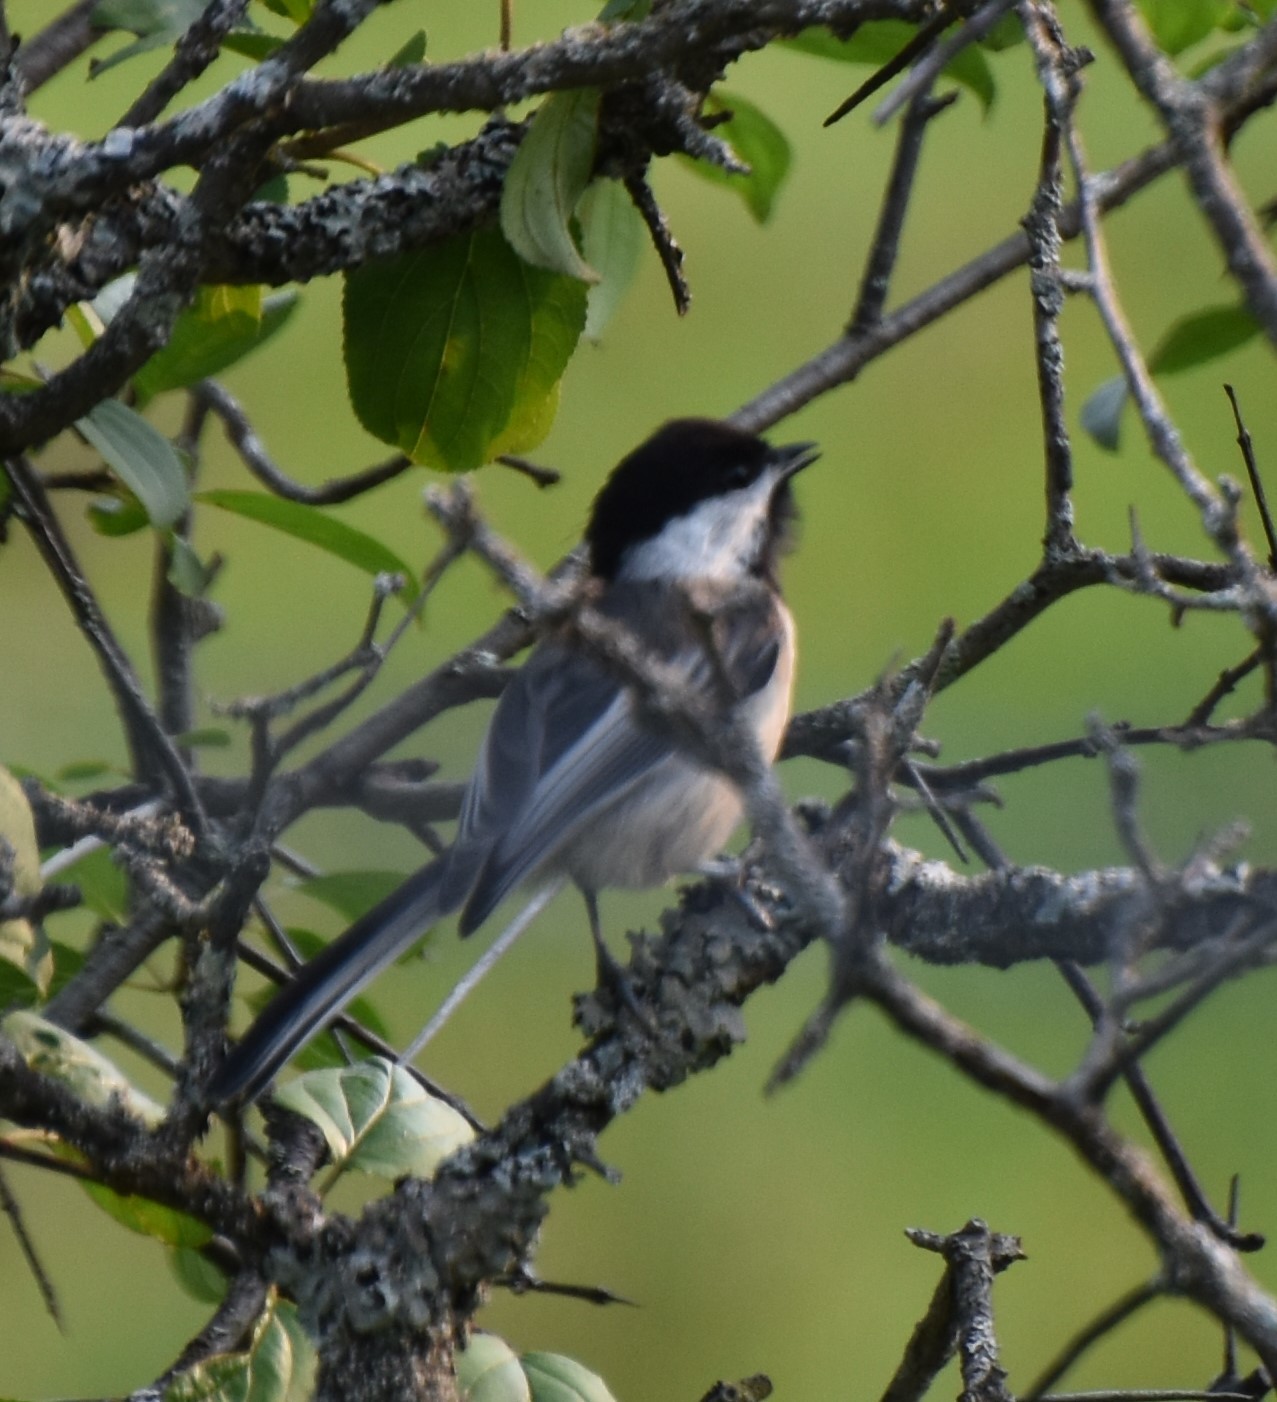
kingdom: Animalia
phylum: Chordata
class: Aves
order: Passeriformes
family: Paridae
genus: Poecile
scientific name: Poecile atricapillus
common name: Black-capped chickadee
